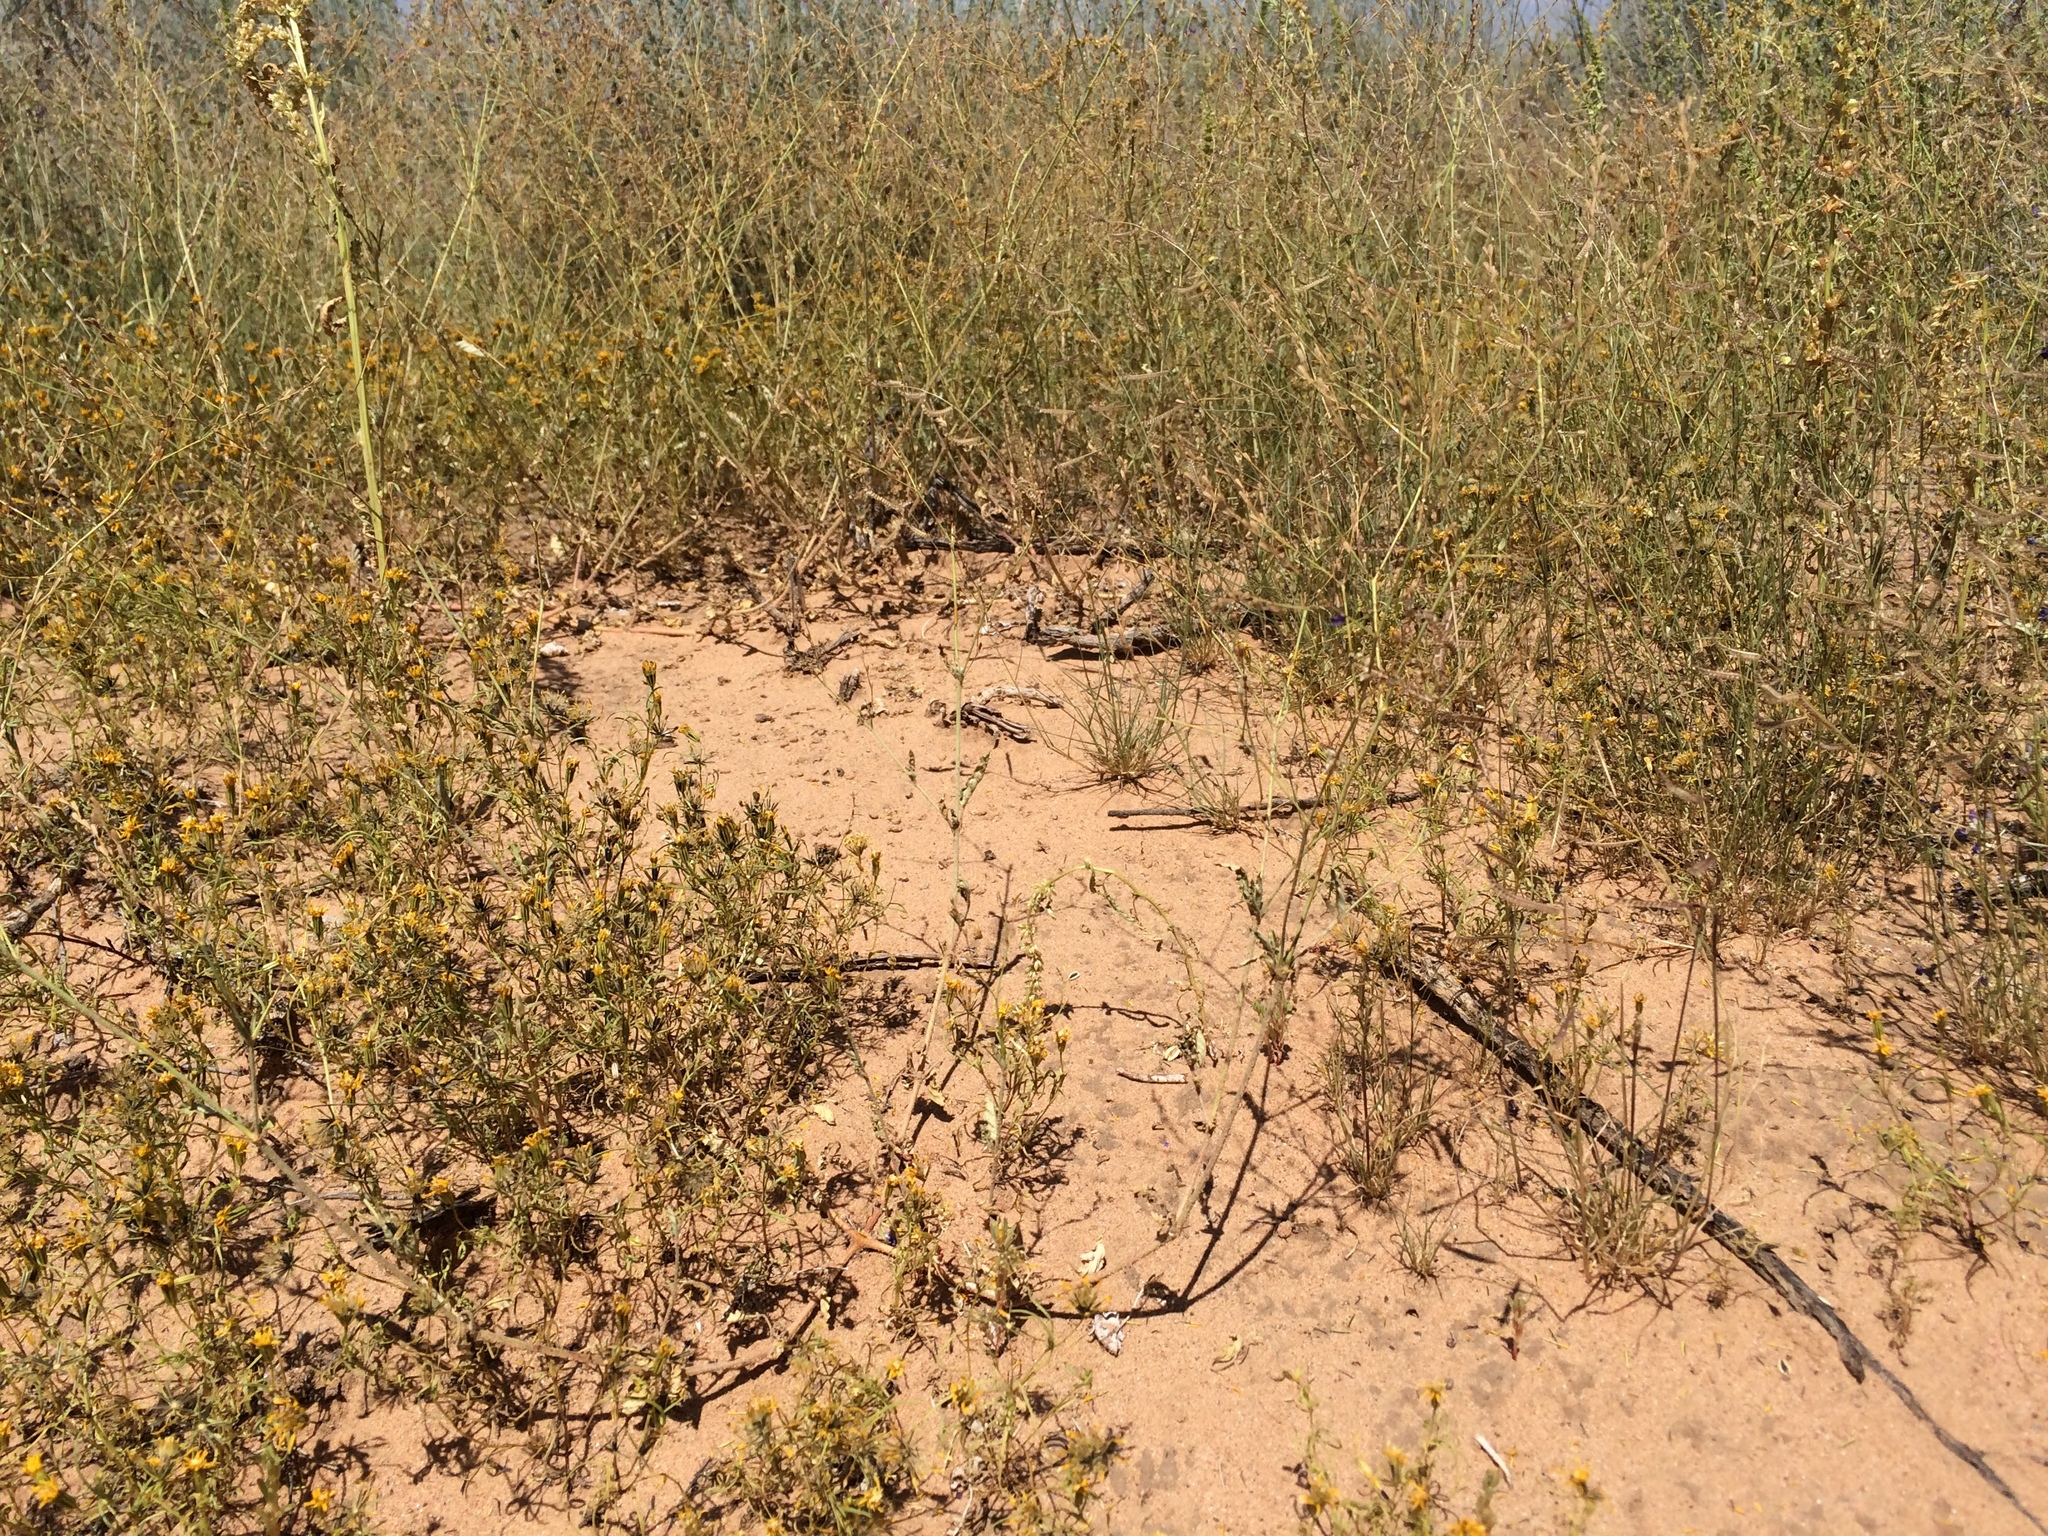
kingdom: Plantae
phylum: Tracheophyta
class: Magnoliopsida
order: Caryophyllales
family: Nyctaginaceae
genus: Boerhavia
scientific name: Boerhavia torreyana
